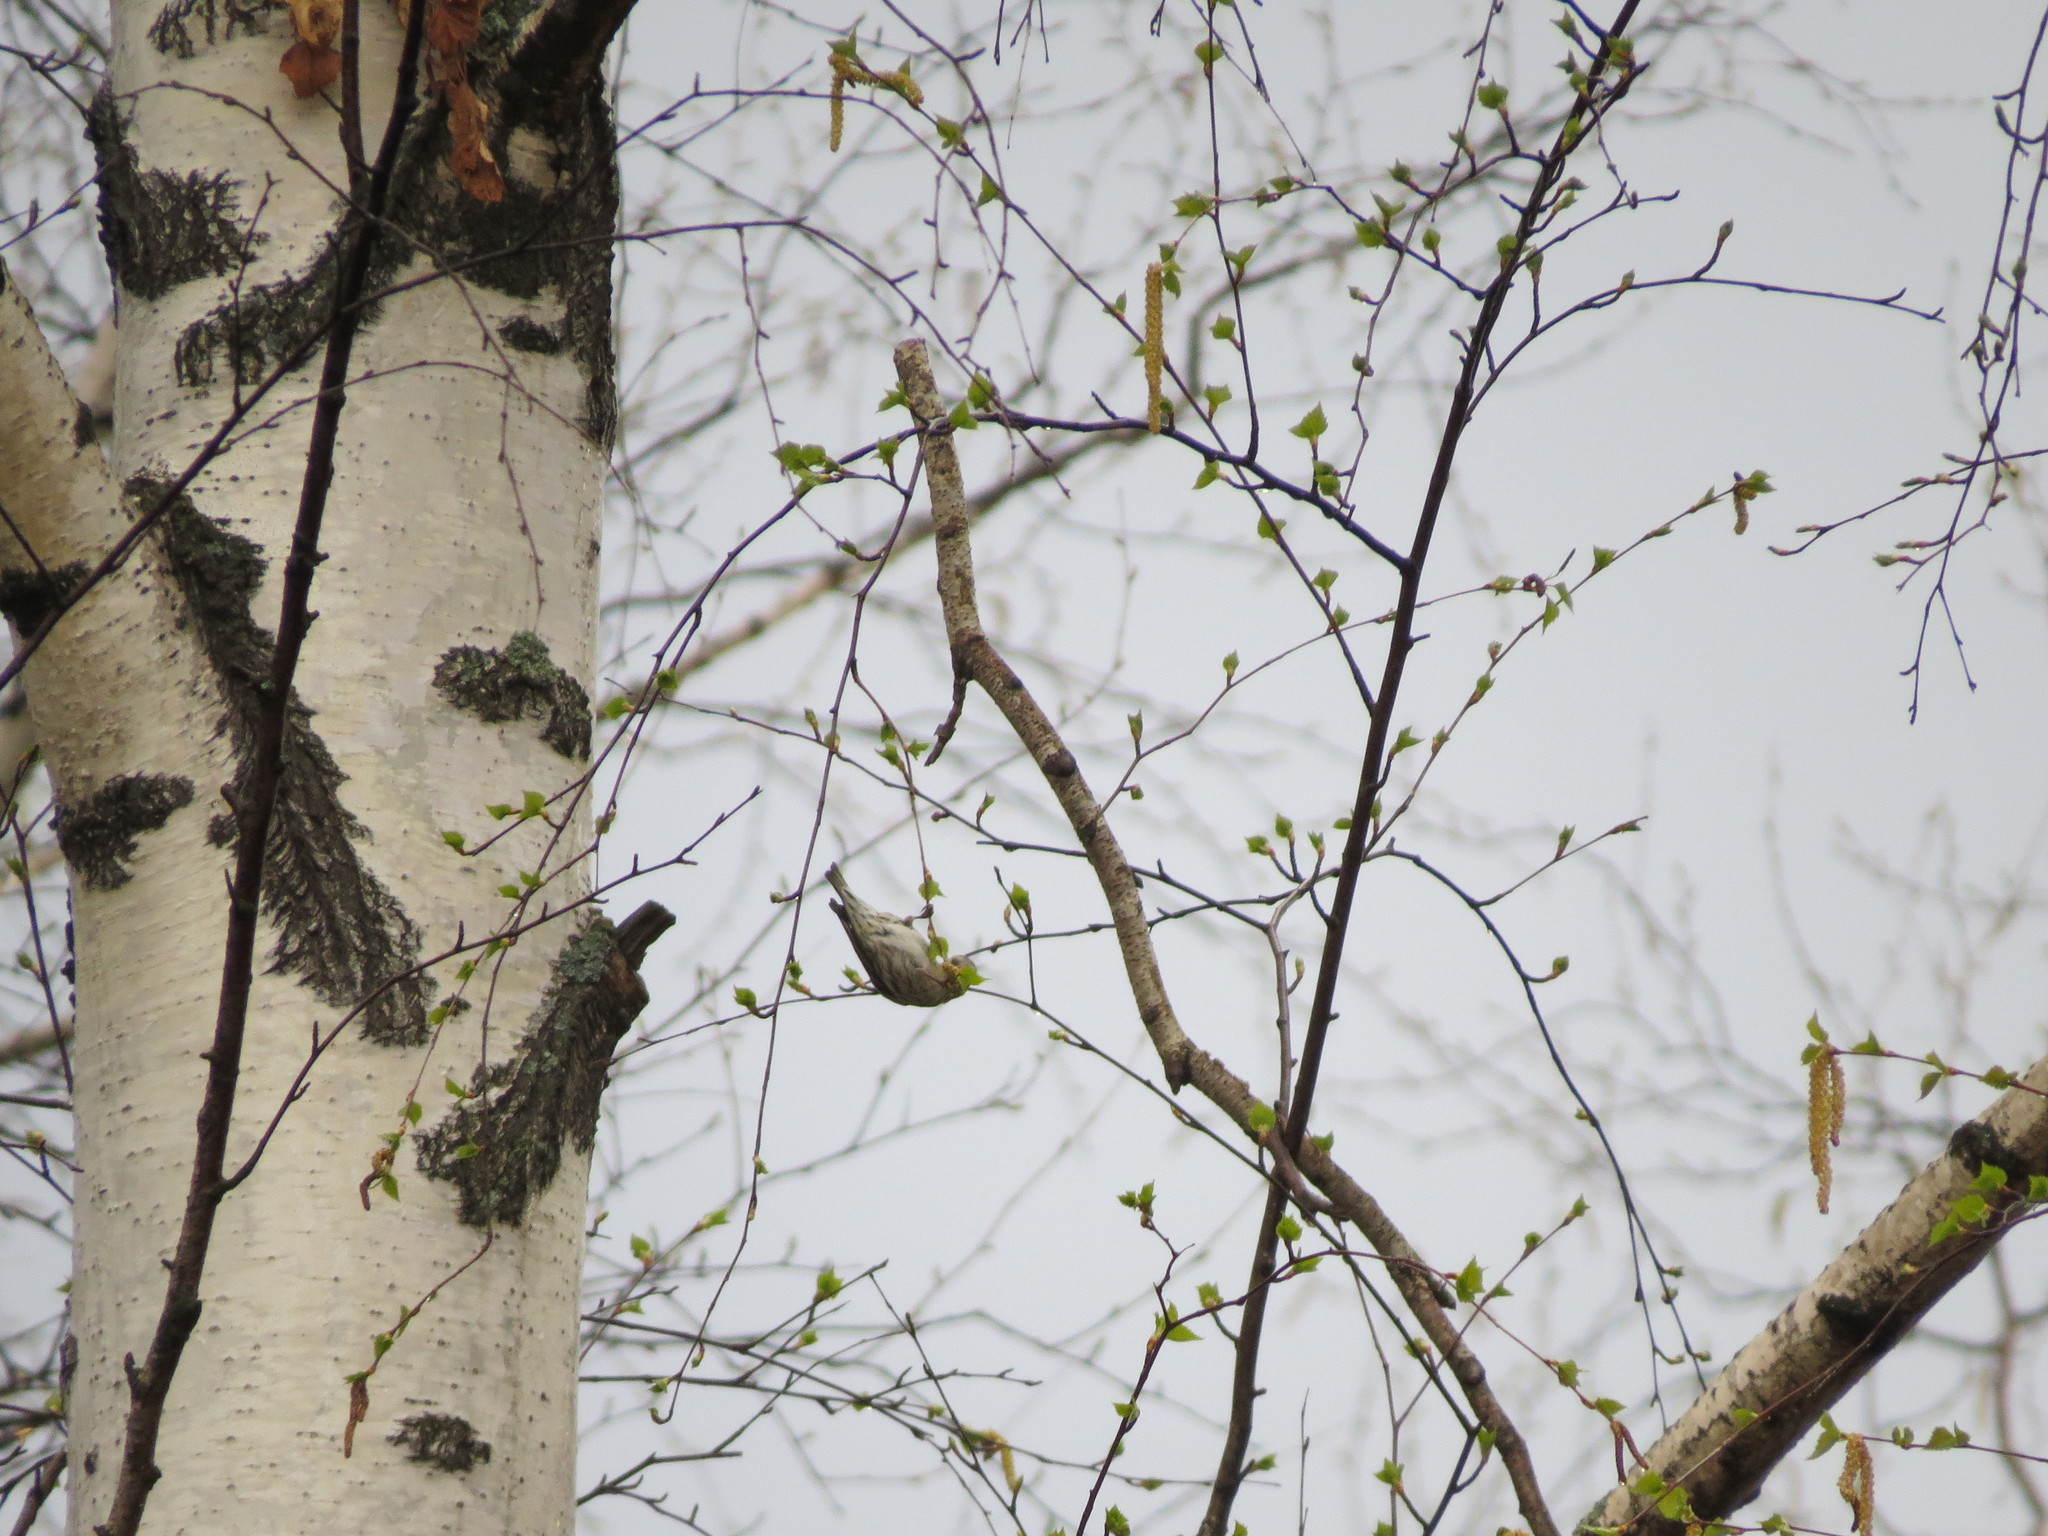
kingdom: Animalia
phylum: Chordata
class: Aves
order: Passeriformes
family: Fringillidae
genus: Spinus
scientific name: Spinus spinus
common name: Eurasian siskin
